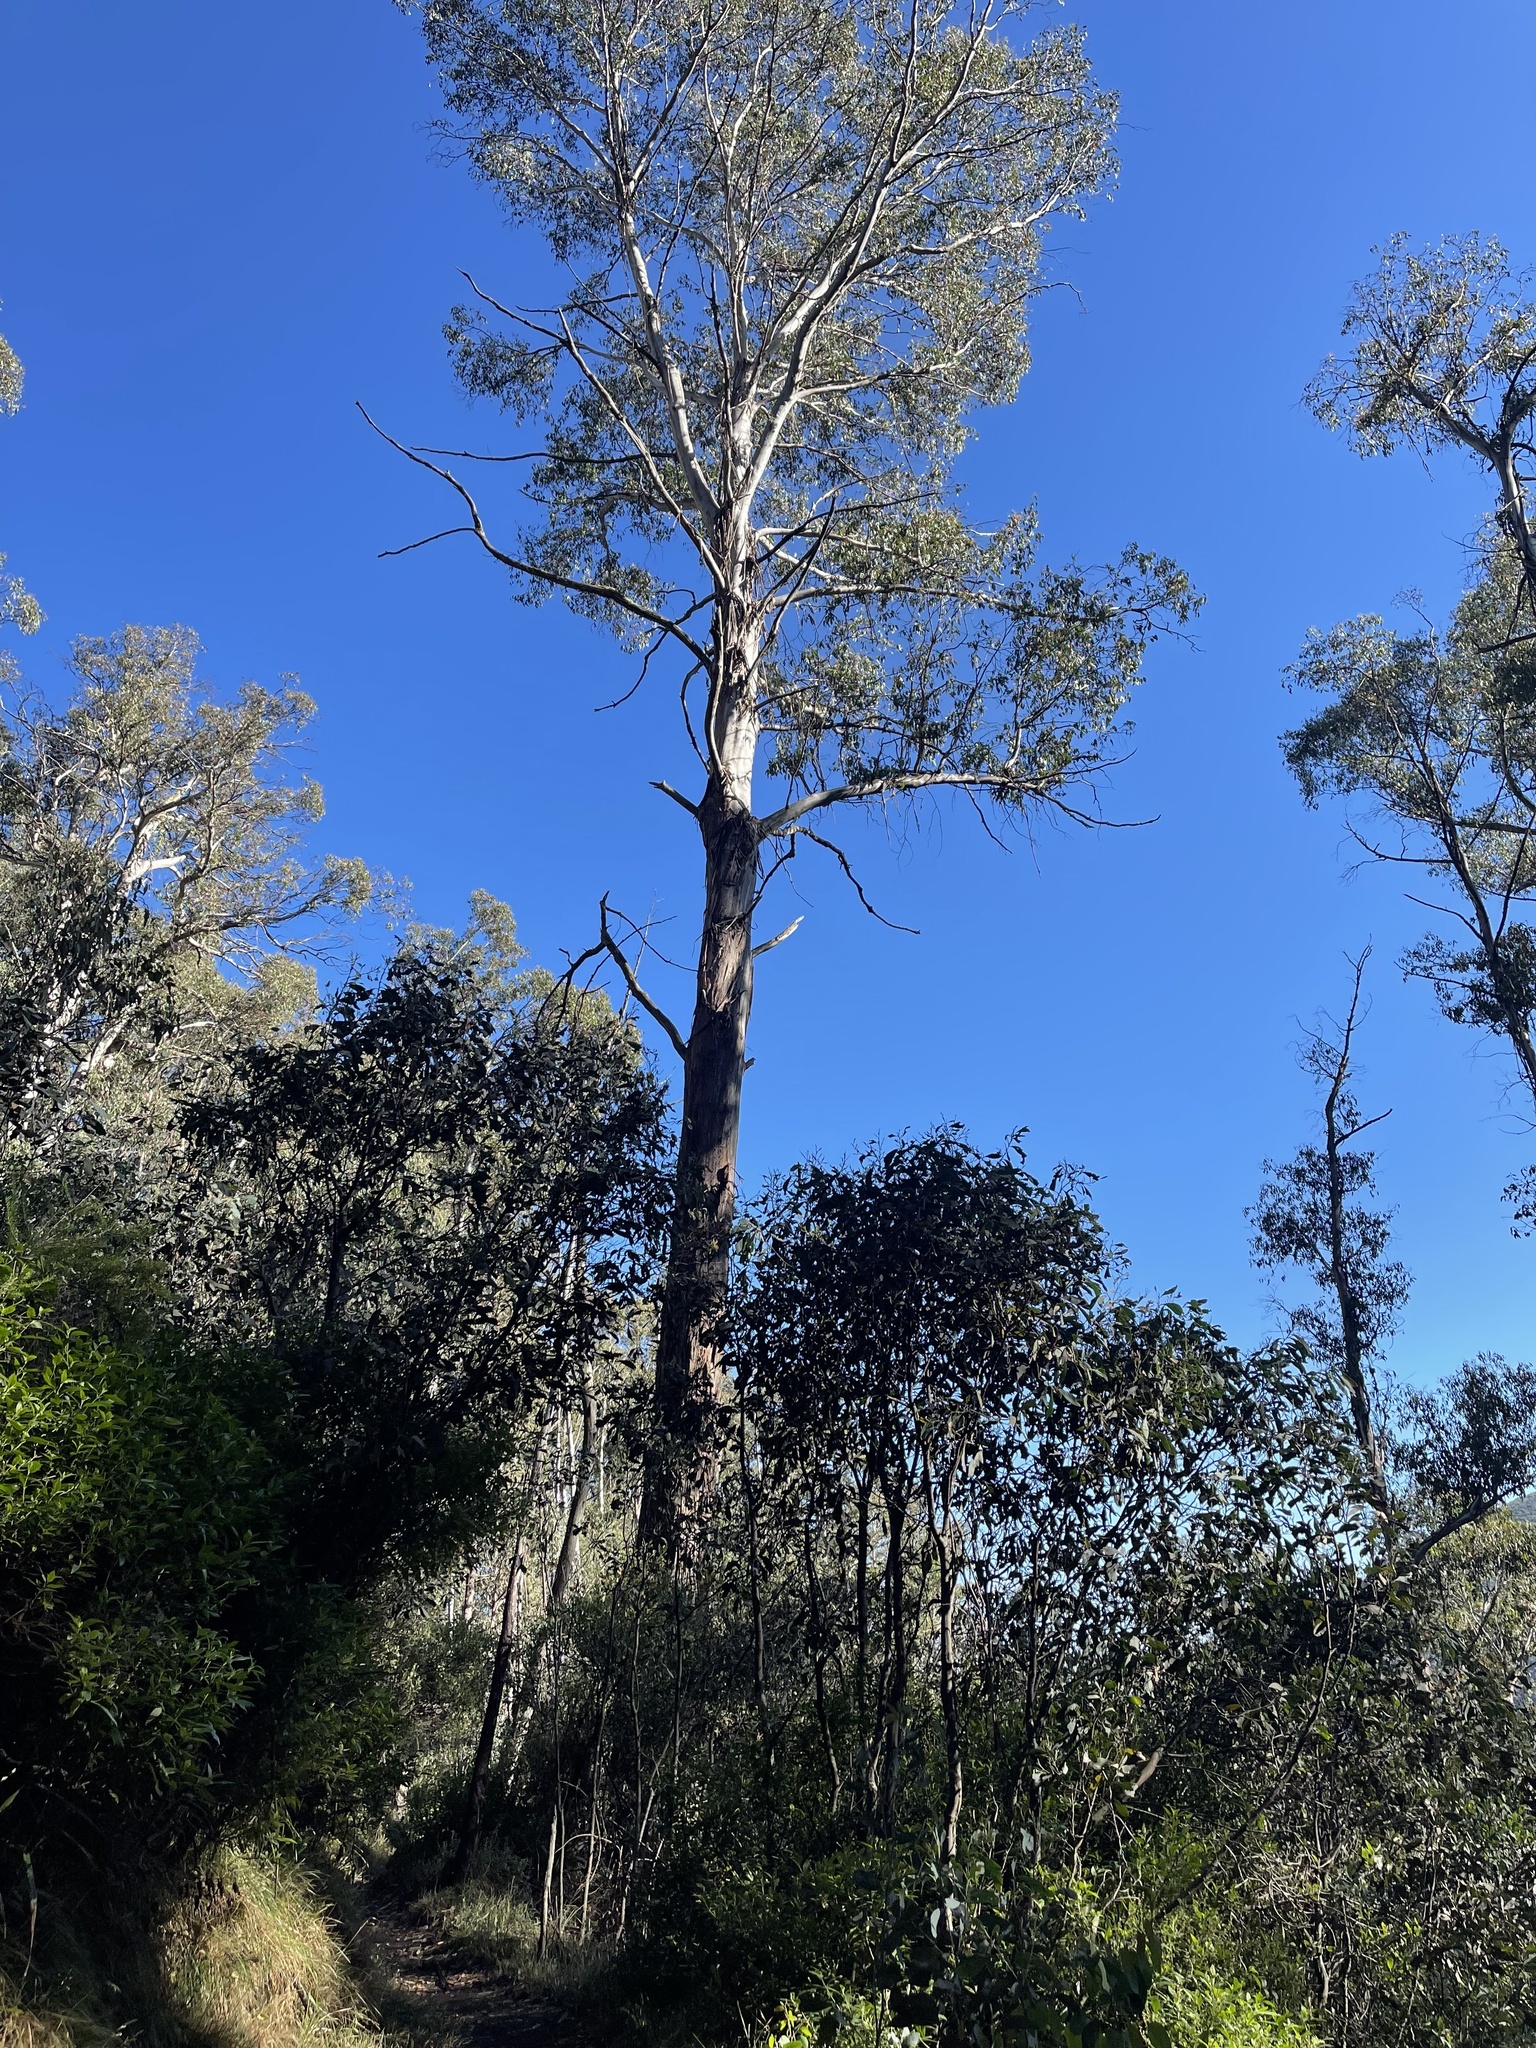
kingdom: Plantae
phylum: Tracheophyta
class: Magnoliopsida
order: Myrtales
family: Myrtaceae
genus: Eucalyptus
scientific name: Eucalyptus delegatensis
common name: Alpine-ash
